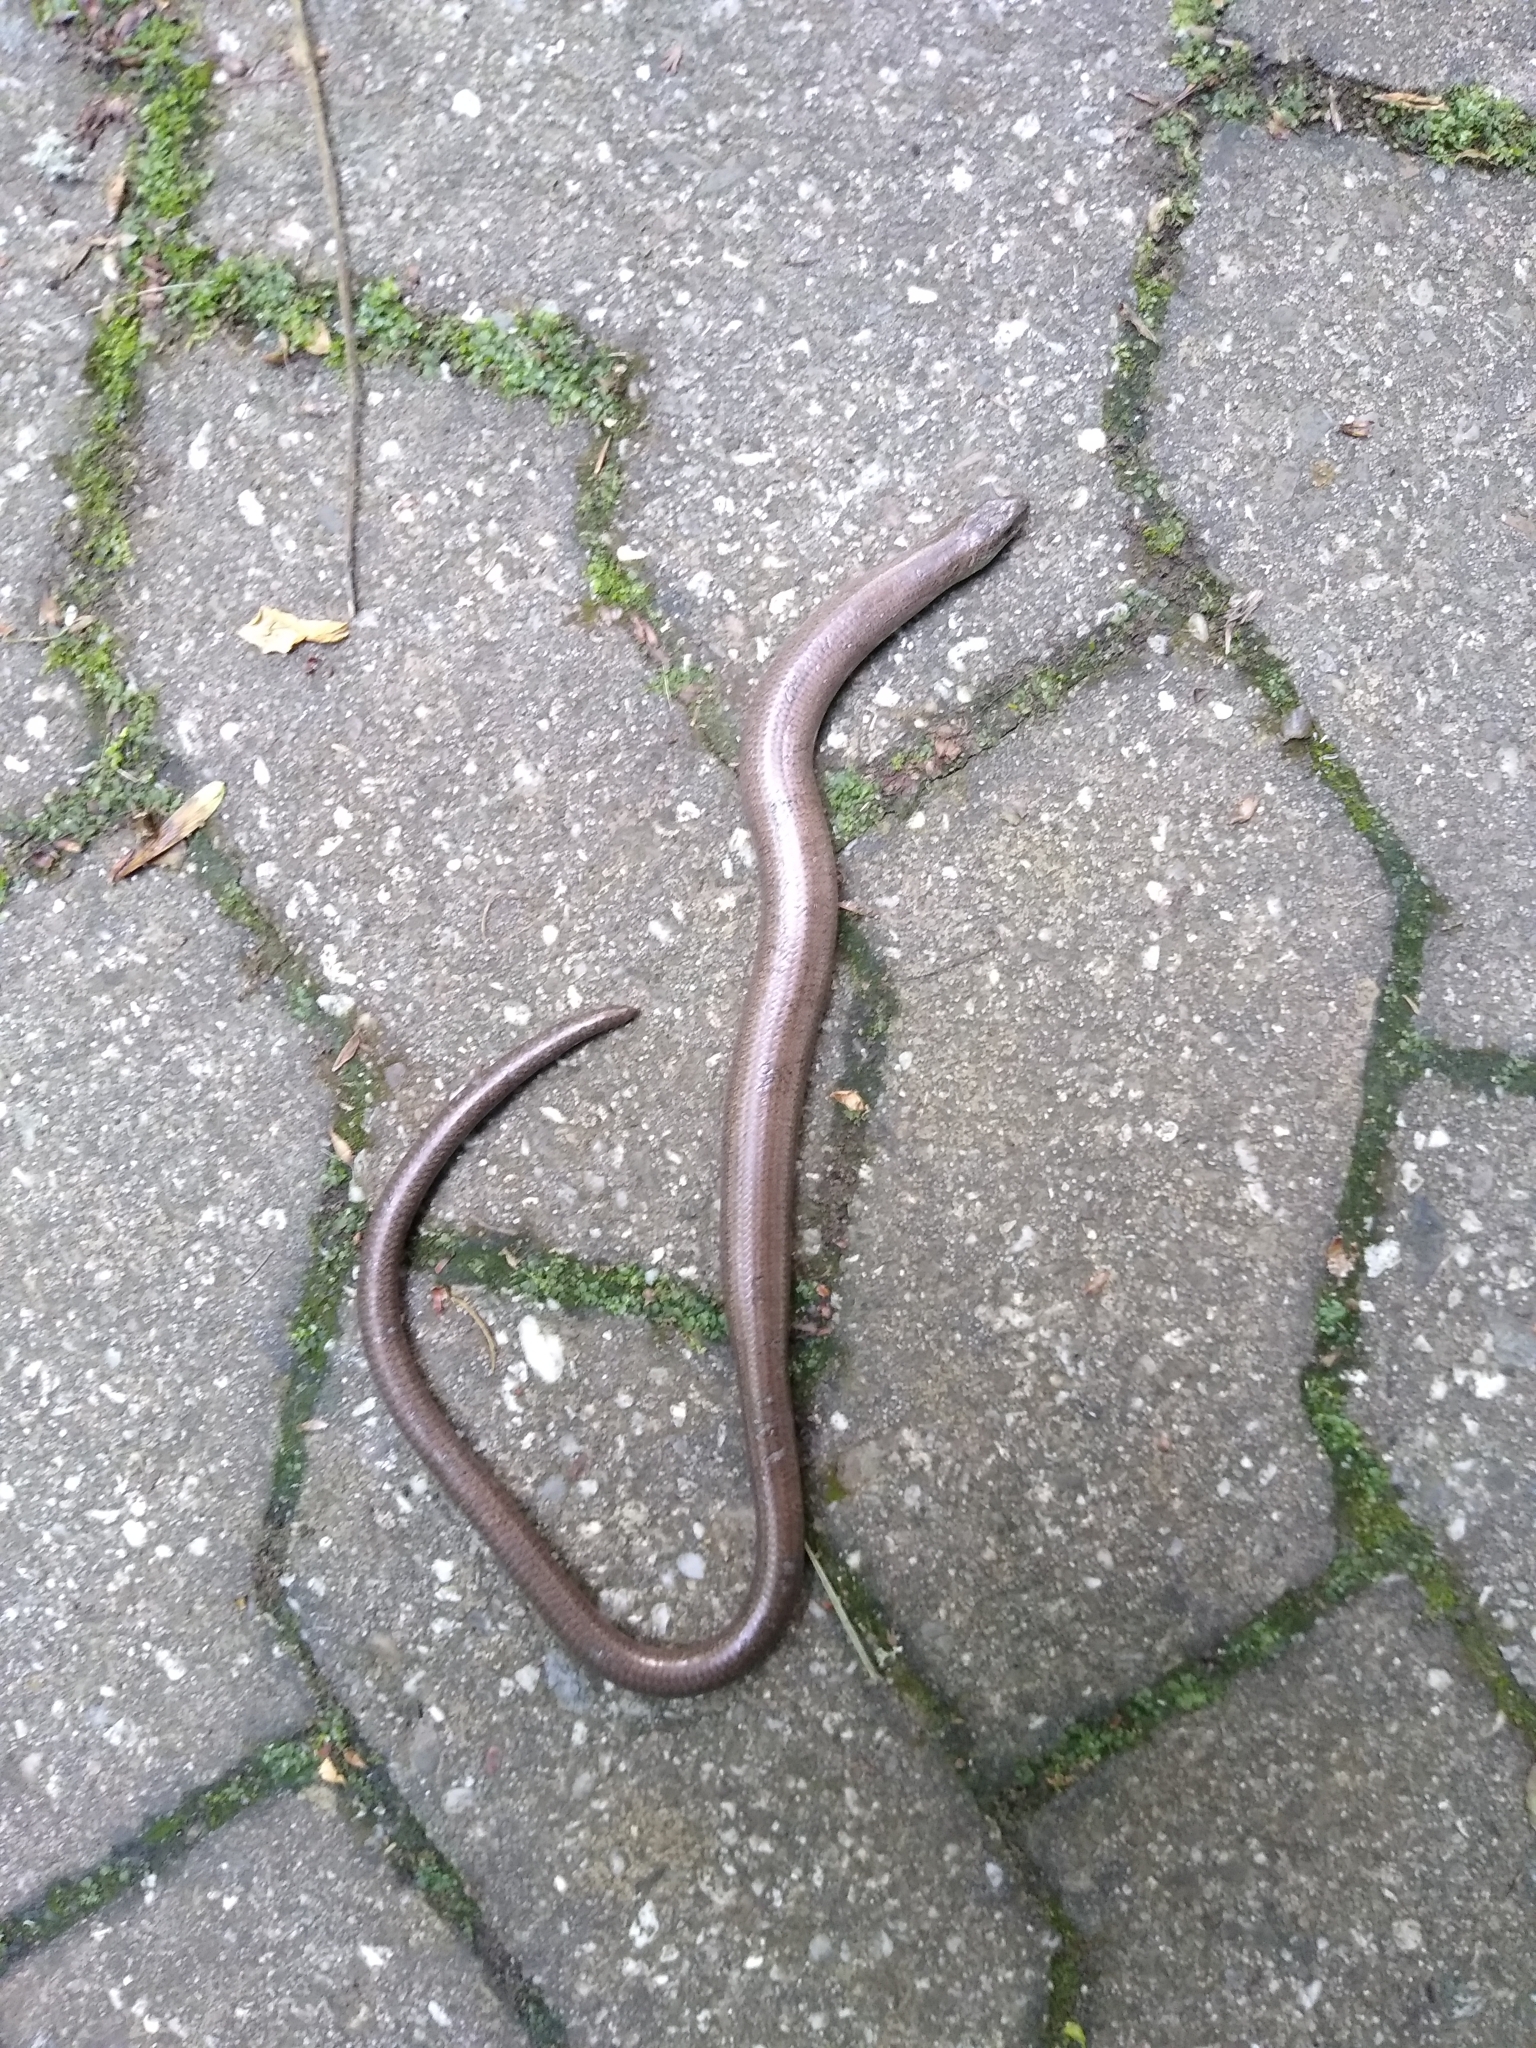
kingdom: Animalia
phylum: Chordata
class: Squamata
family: Anguidae
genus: Anguis
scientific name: Anguis fragilis
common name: Slow worm
